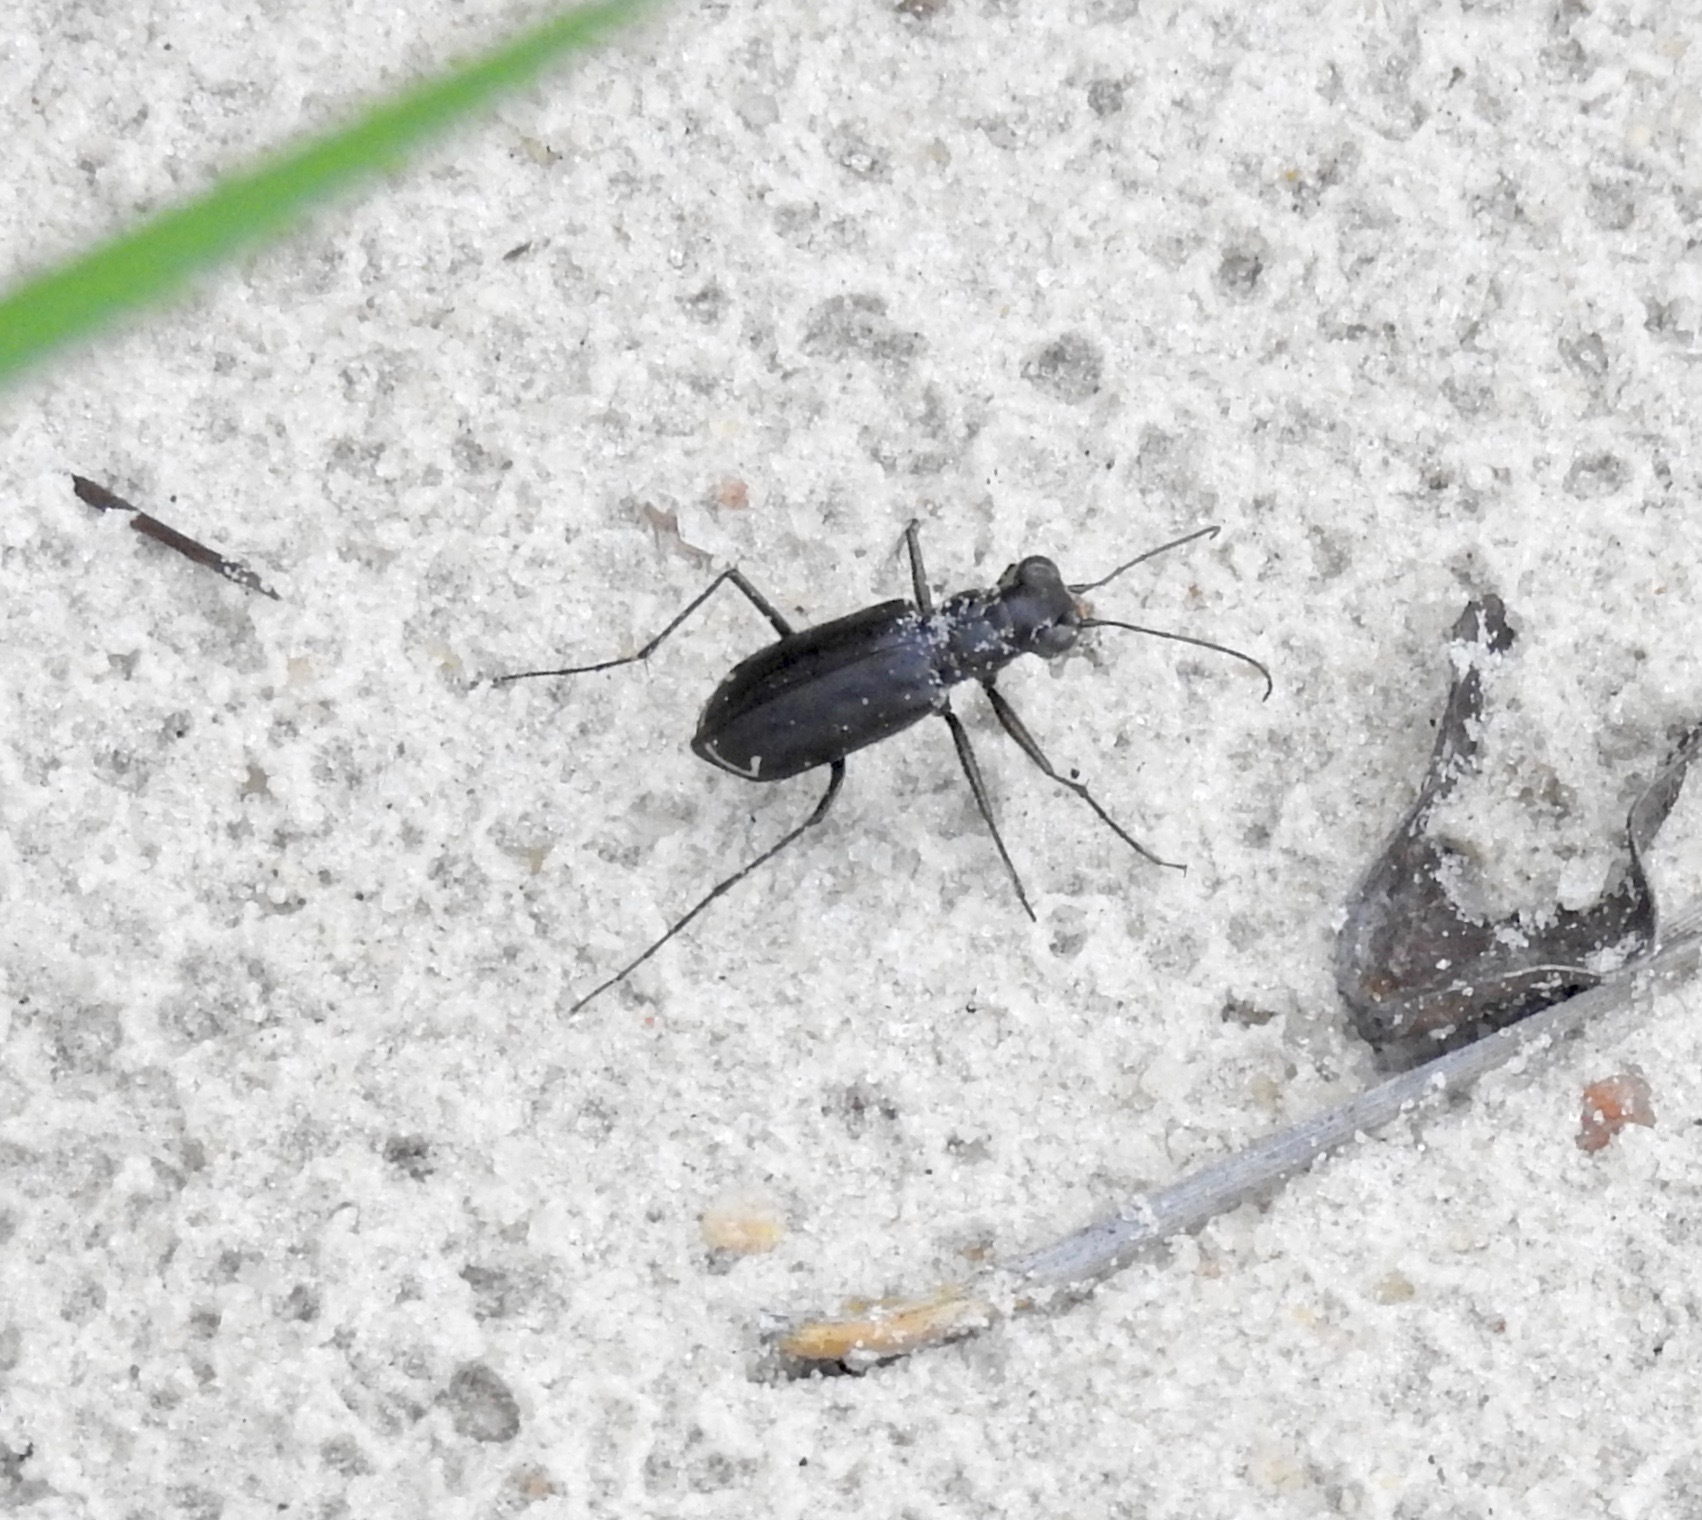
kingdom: Animalia
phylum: Arthropoda
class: Insecta
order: Coleoptera
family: Carabidae
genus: Cicindela
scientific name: Cicindela punctulata
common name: Punctured tiger beetle
